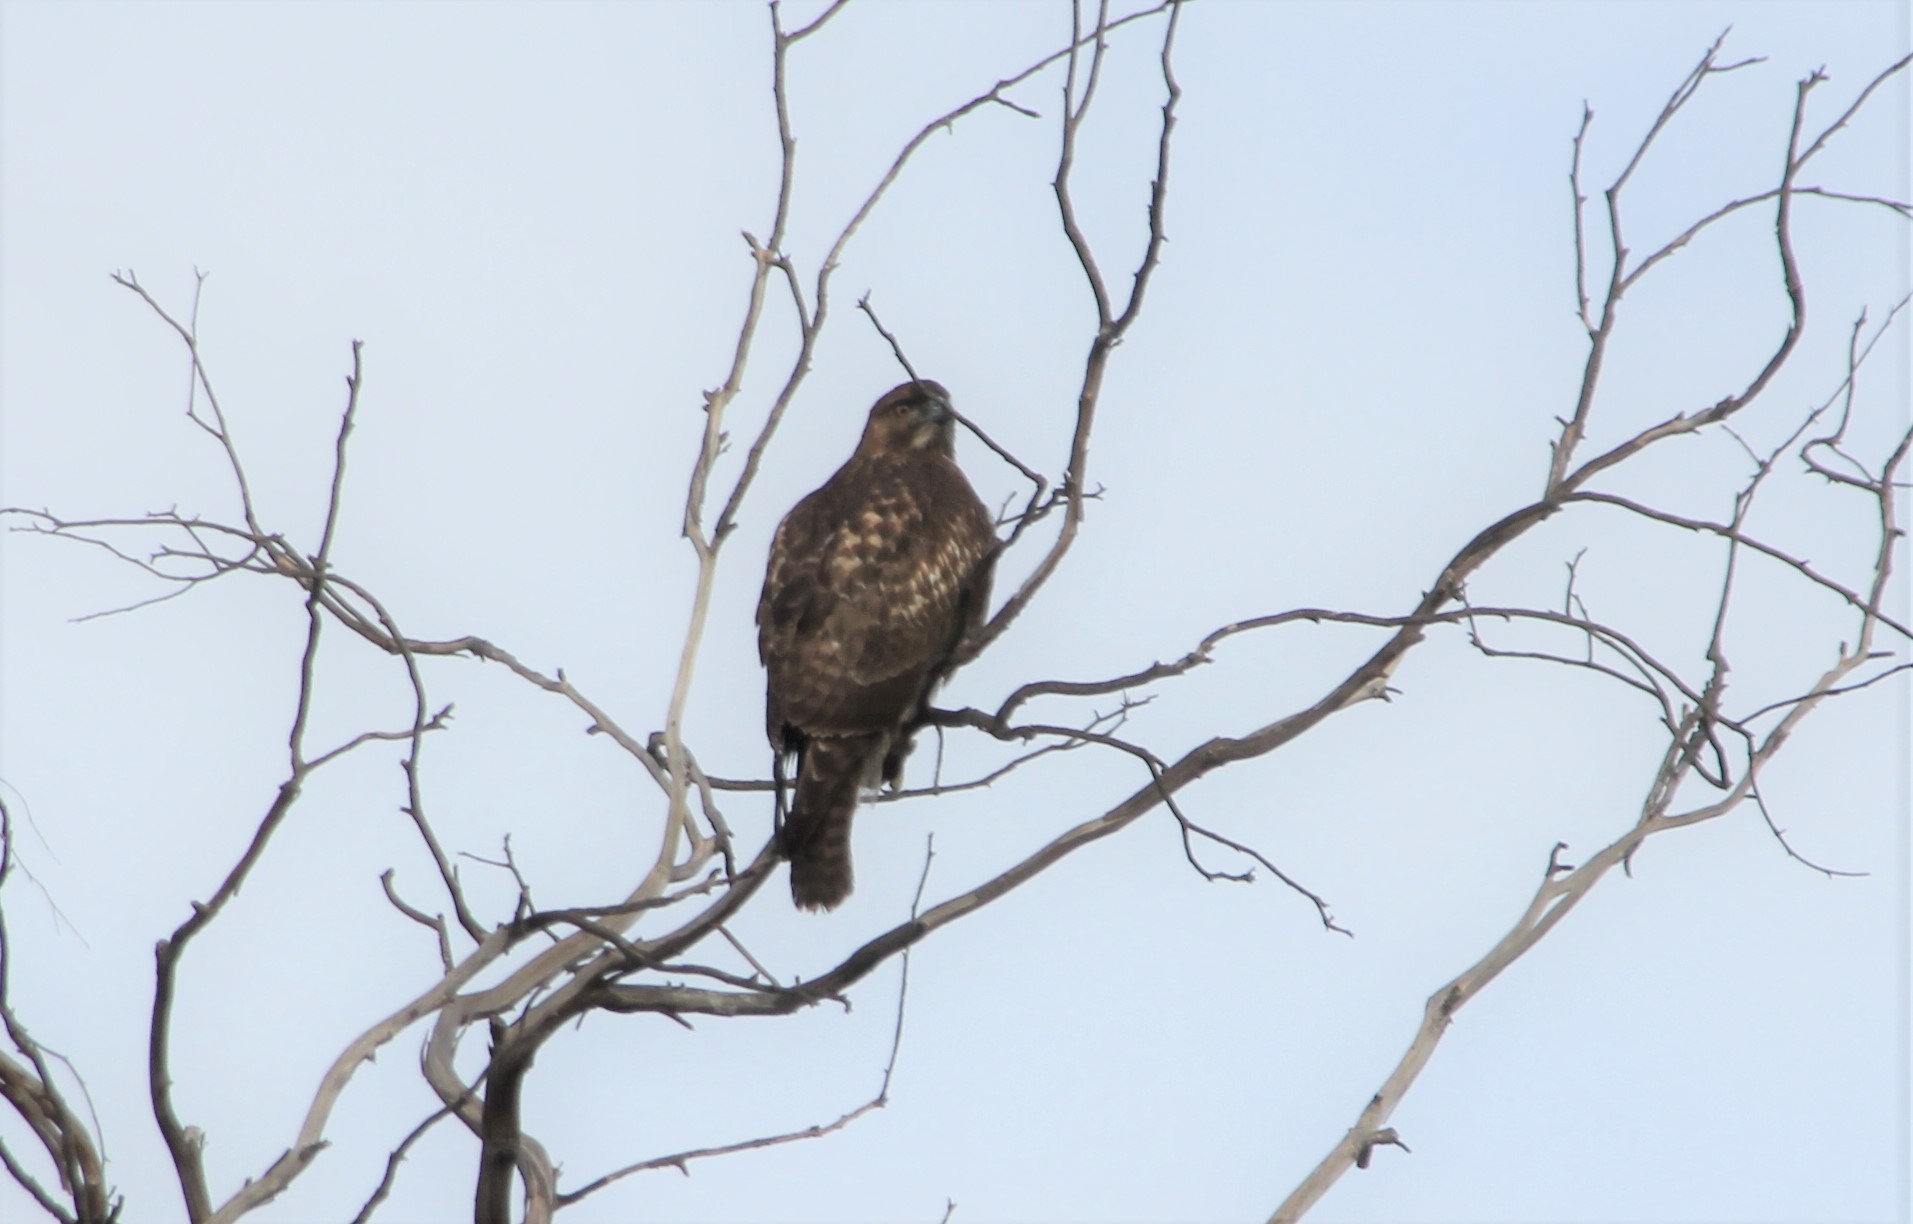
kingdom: Animalia
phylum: Chordata
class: Aves
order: Accipitriformes
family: Accipitridae
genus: Buteo
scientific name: Buteo jamaicensis
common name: Red-tailed hawk
